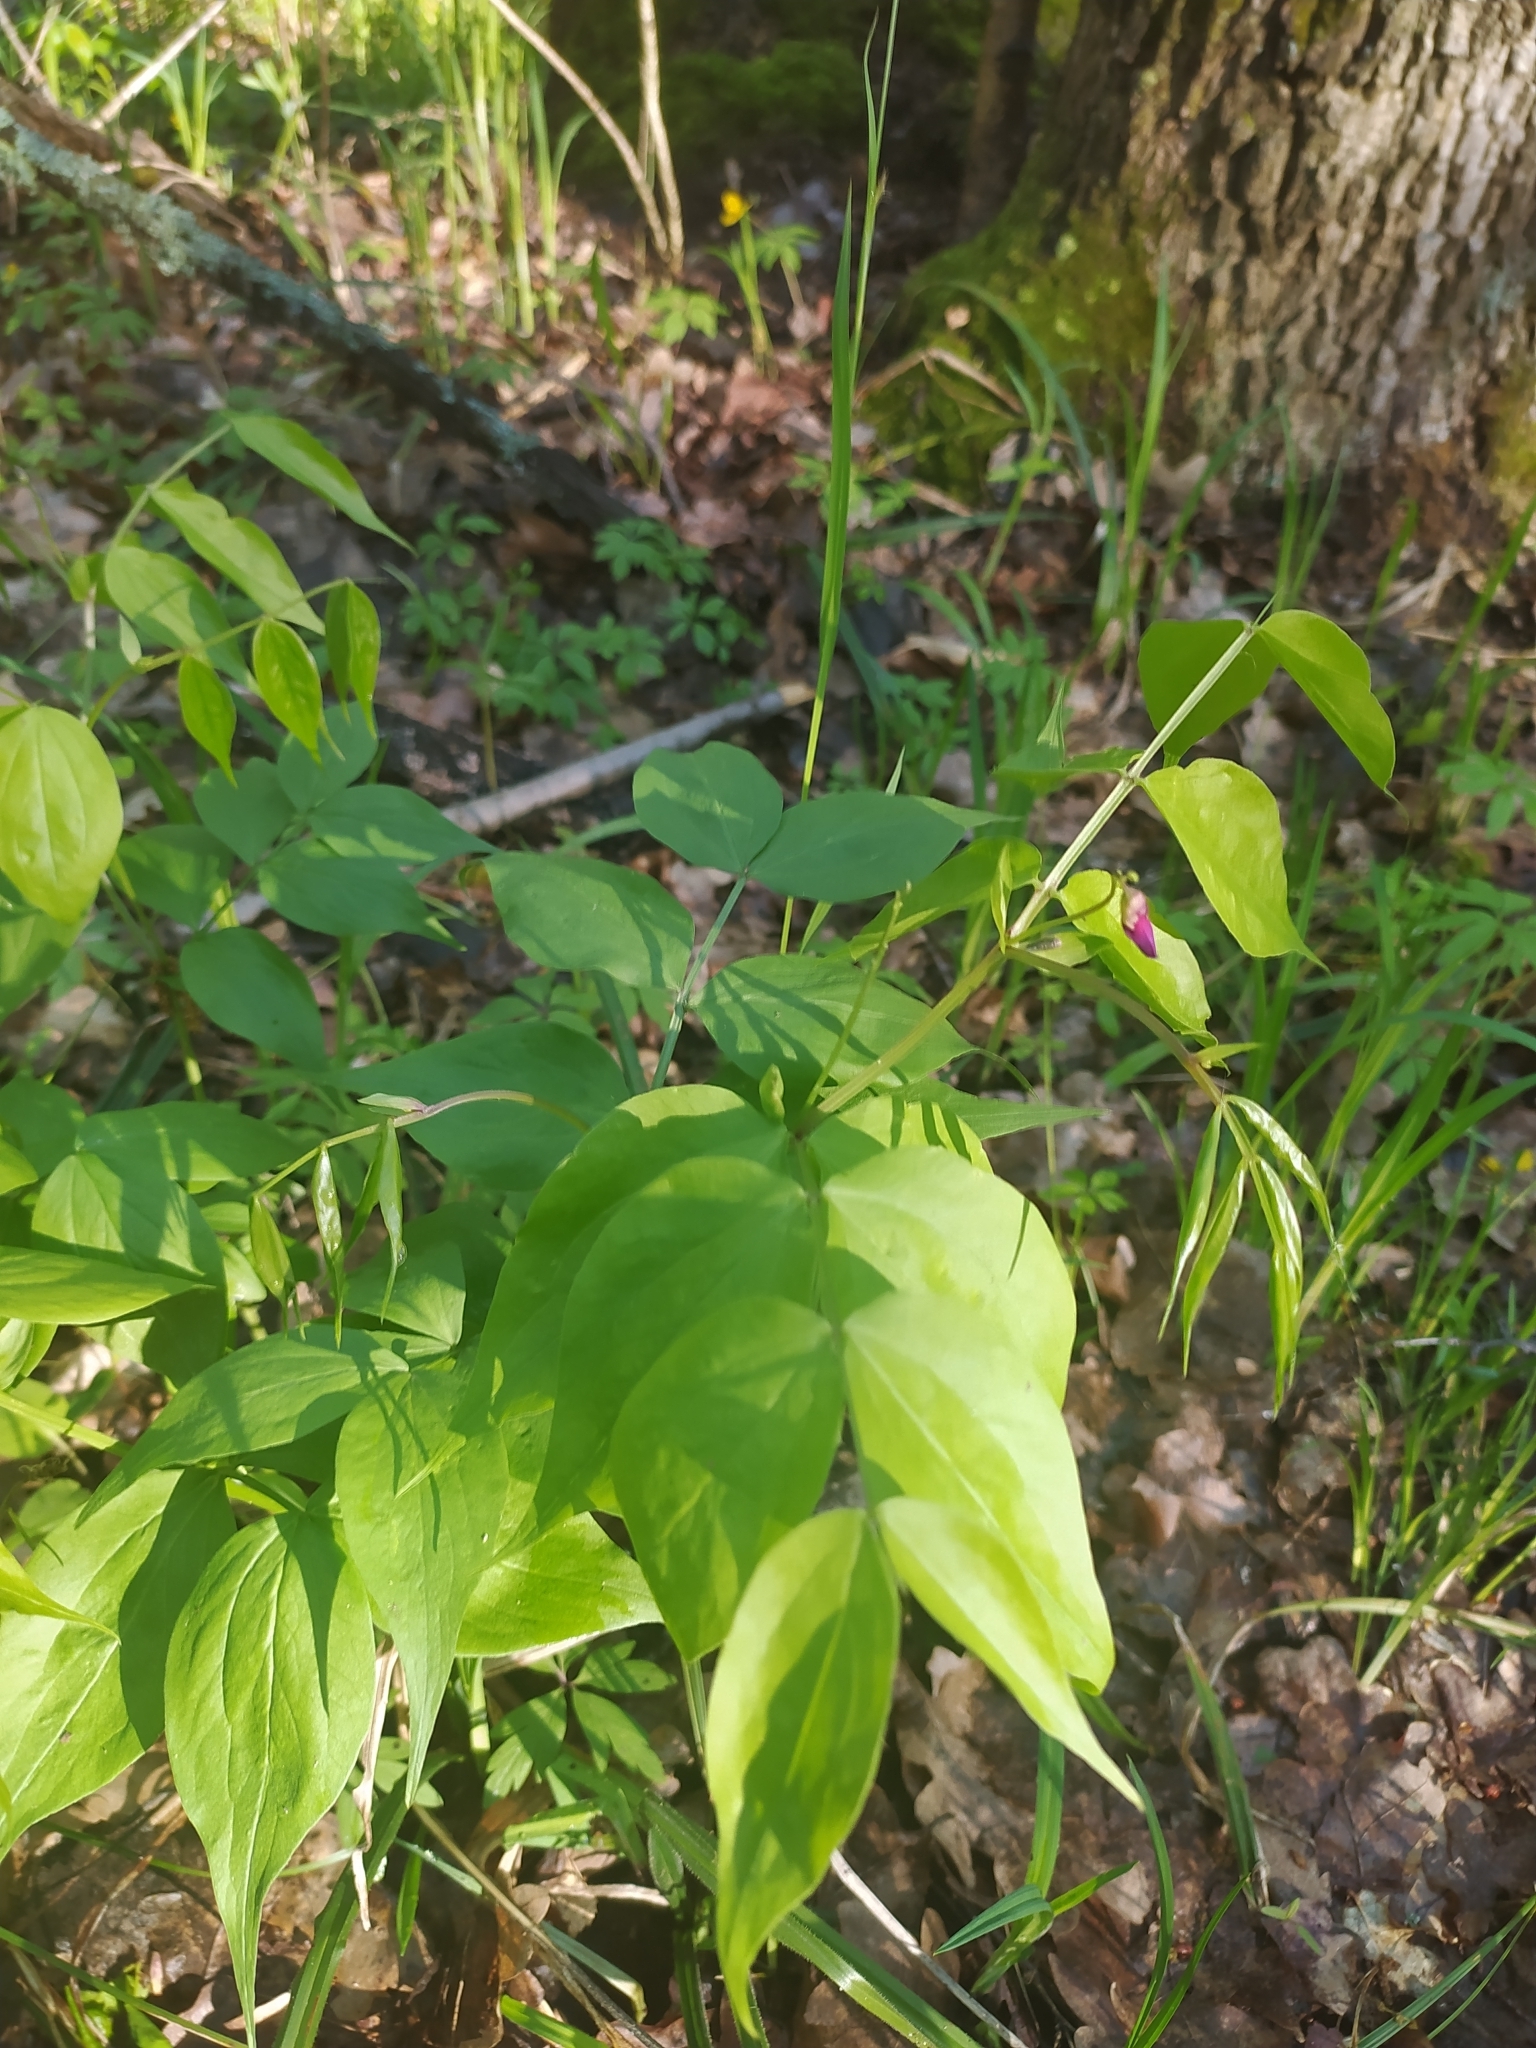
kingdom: Plantae
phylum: Tracheophyta
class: Magnoliopsida
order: Fabales
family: Fabaceae
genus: Lathyrus
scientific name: Lathyrus vernus
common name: Spring pea
